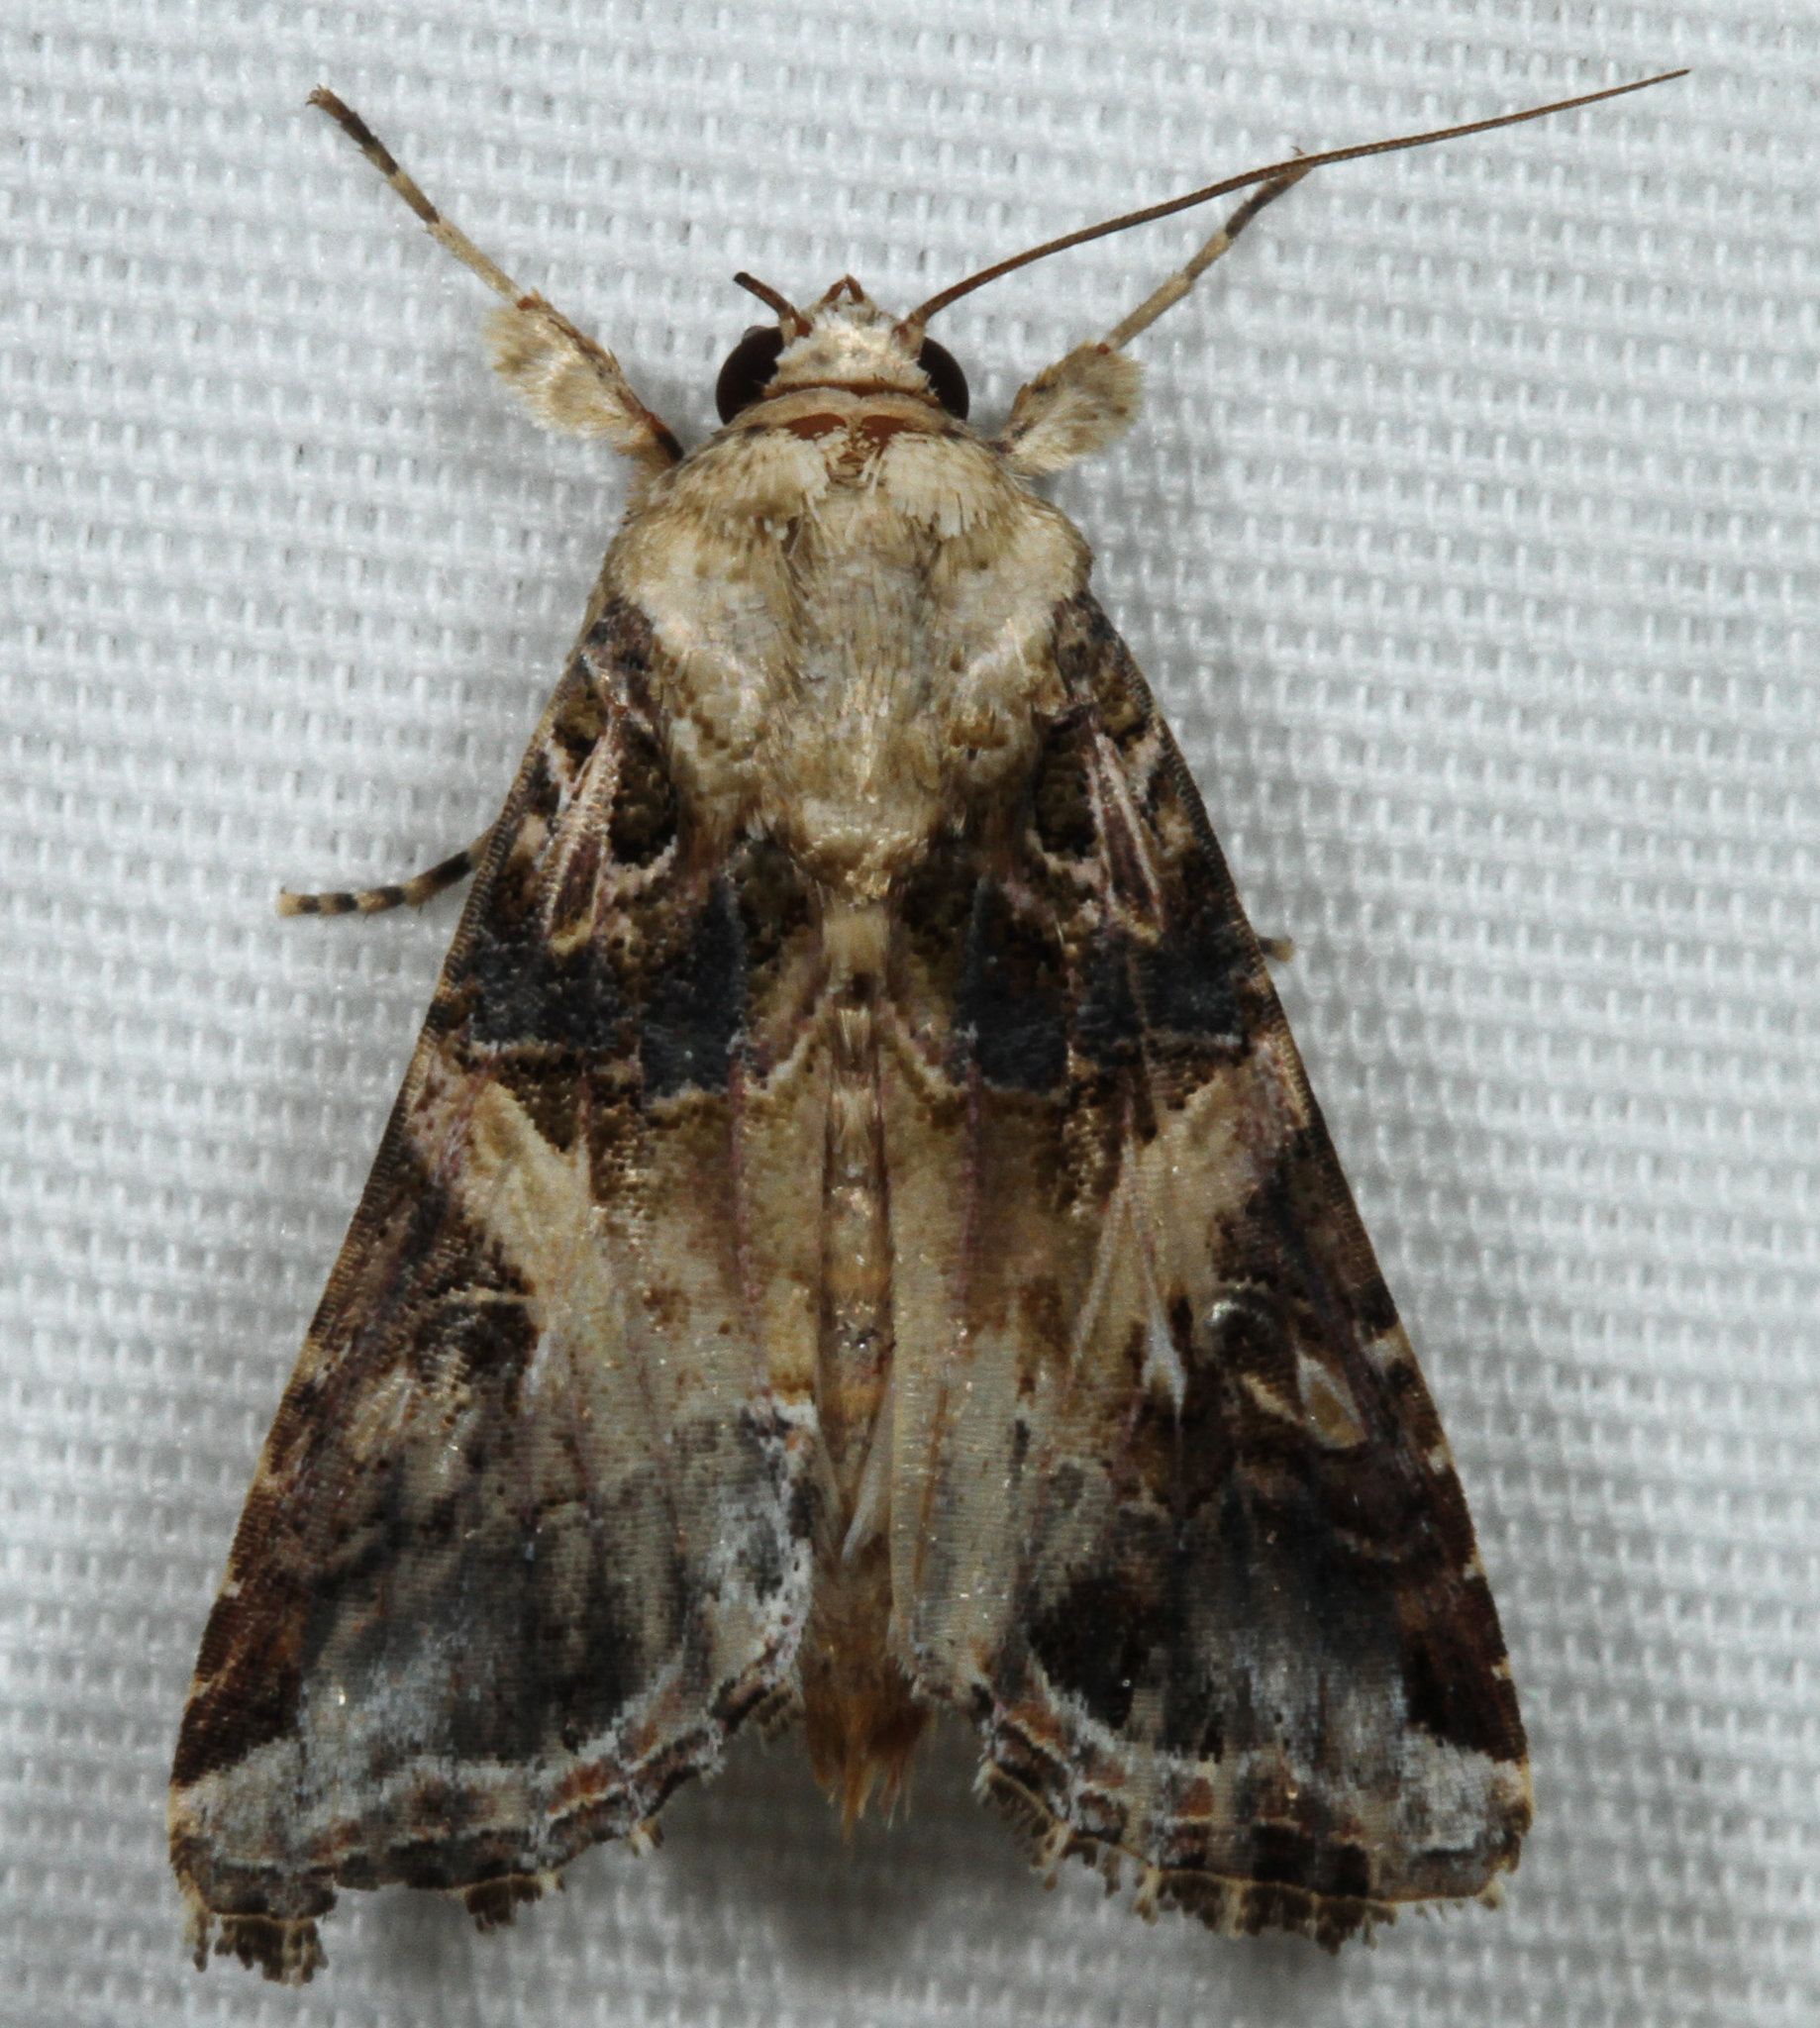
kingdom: Animalia
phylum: Arthropoda
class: Insecta
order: Lepidoptera
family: Noctuidae
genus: Spodoptera
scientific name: Spodoptera ornithogalli
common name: Yellow-striped armyworm
